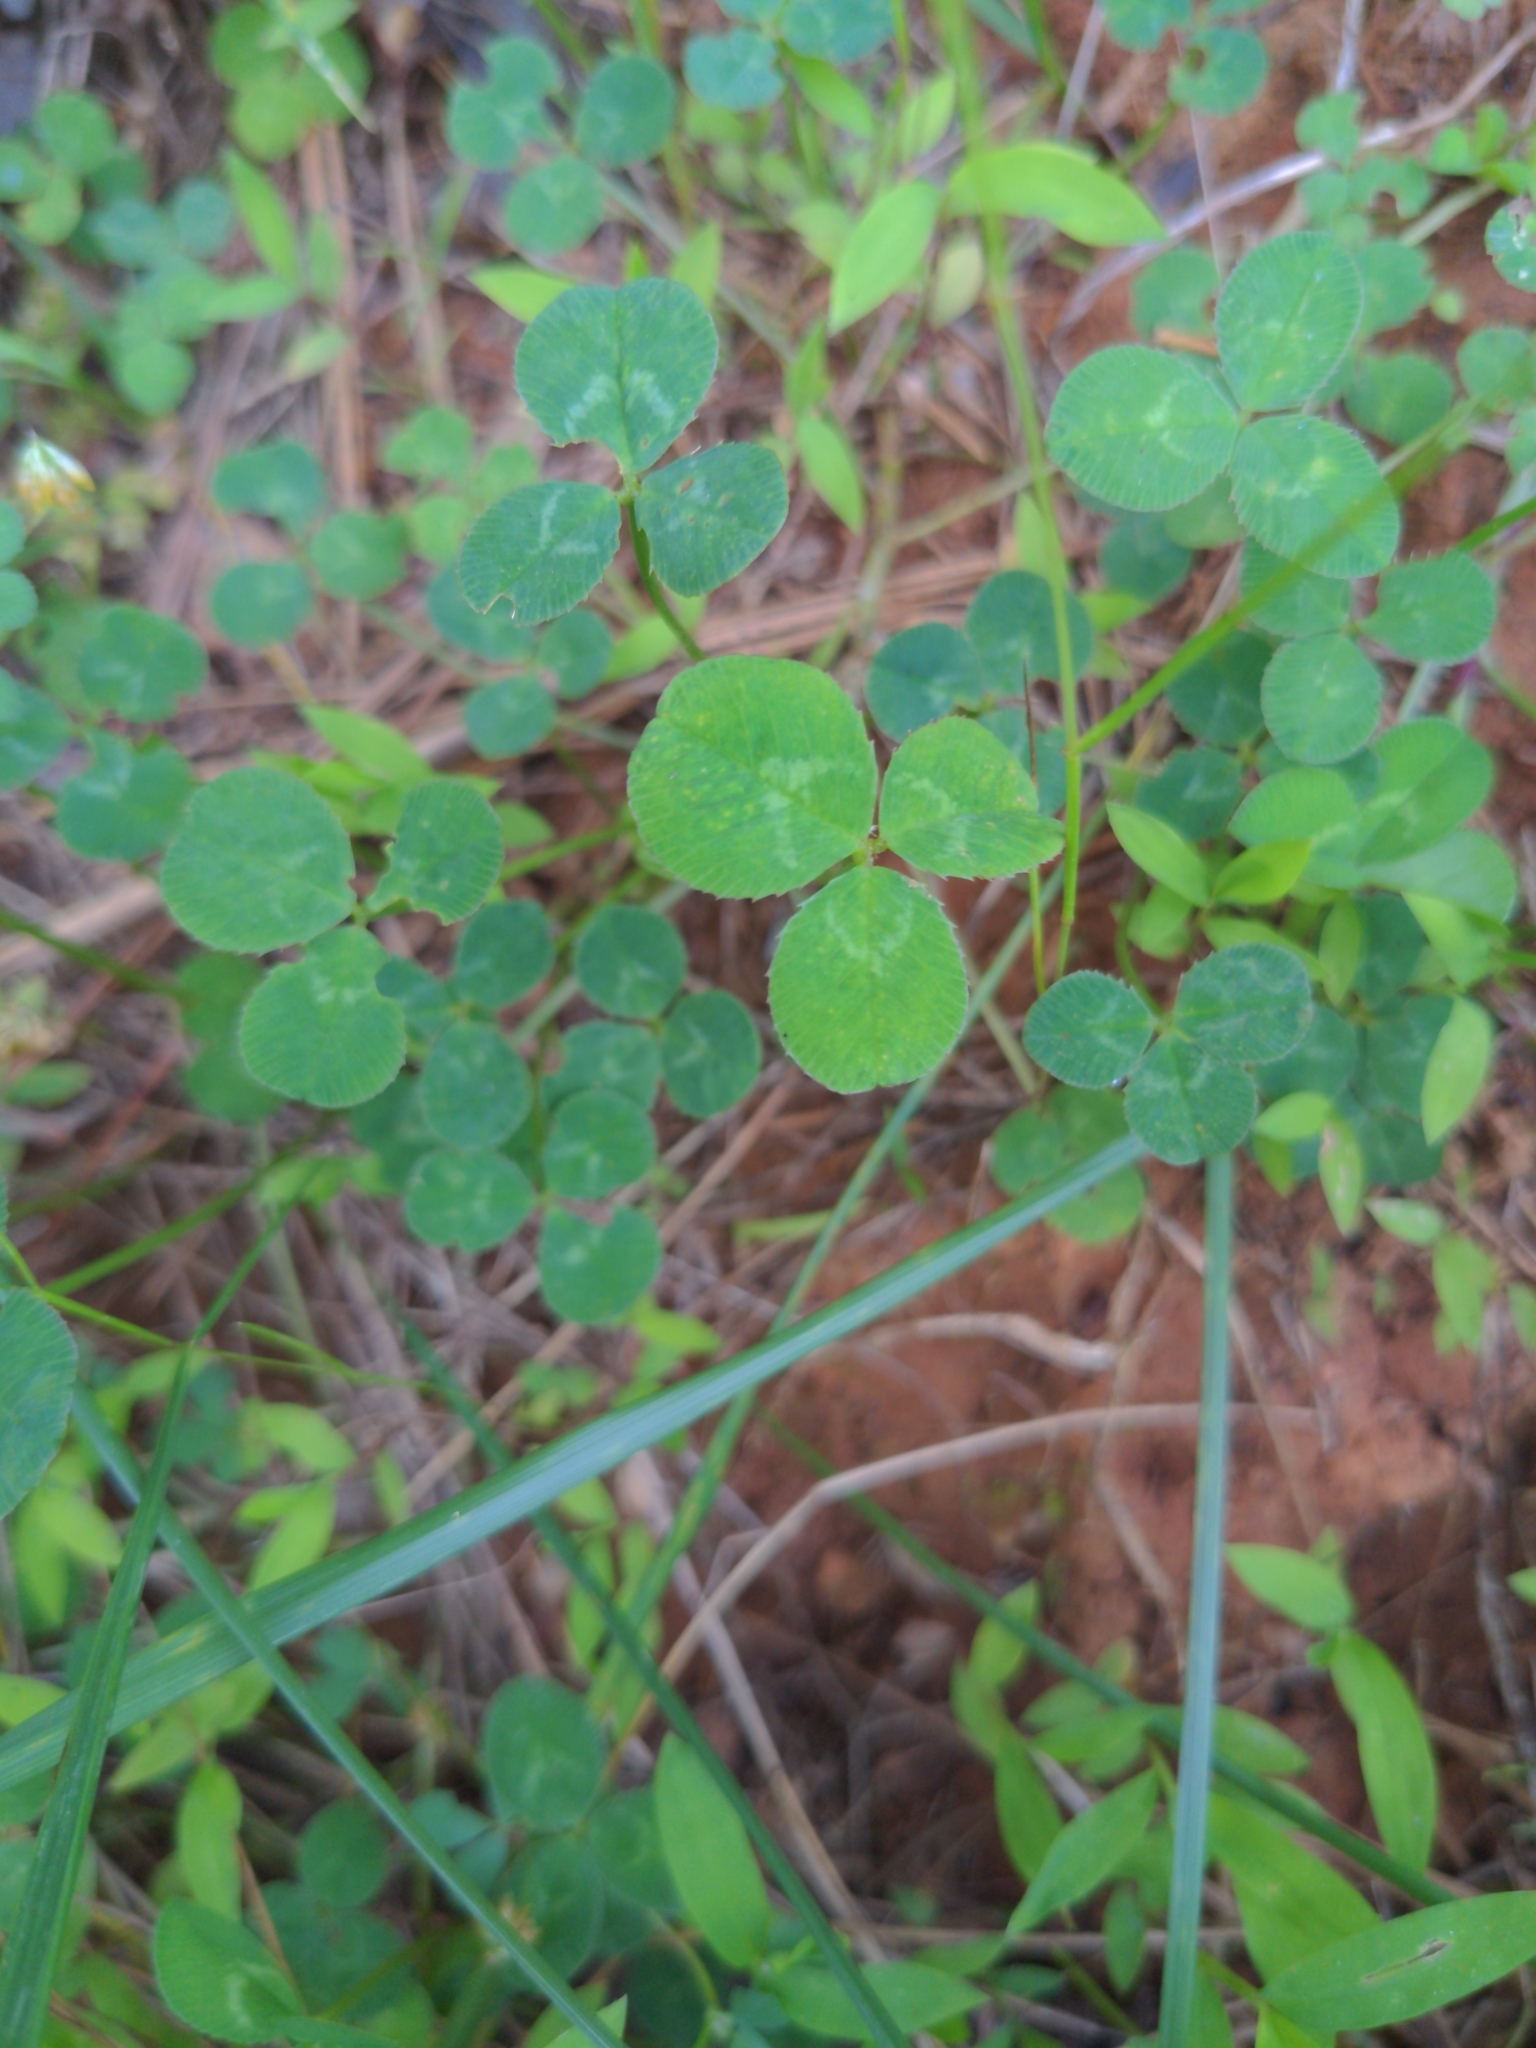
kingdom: Plantae
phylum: Tracheophyta
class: Magnoliopsida
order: Fabales
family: Fabaceae
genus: Trifolium
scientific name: Trifolium repens
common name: White clover
